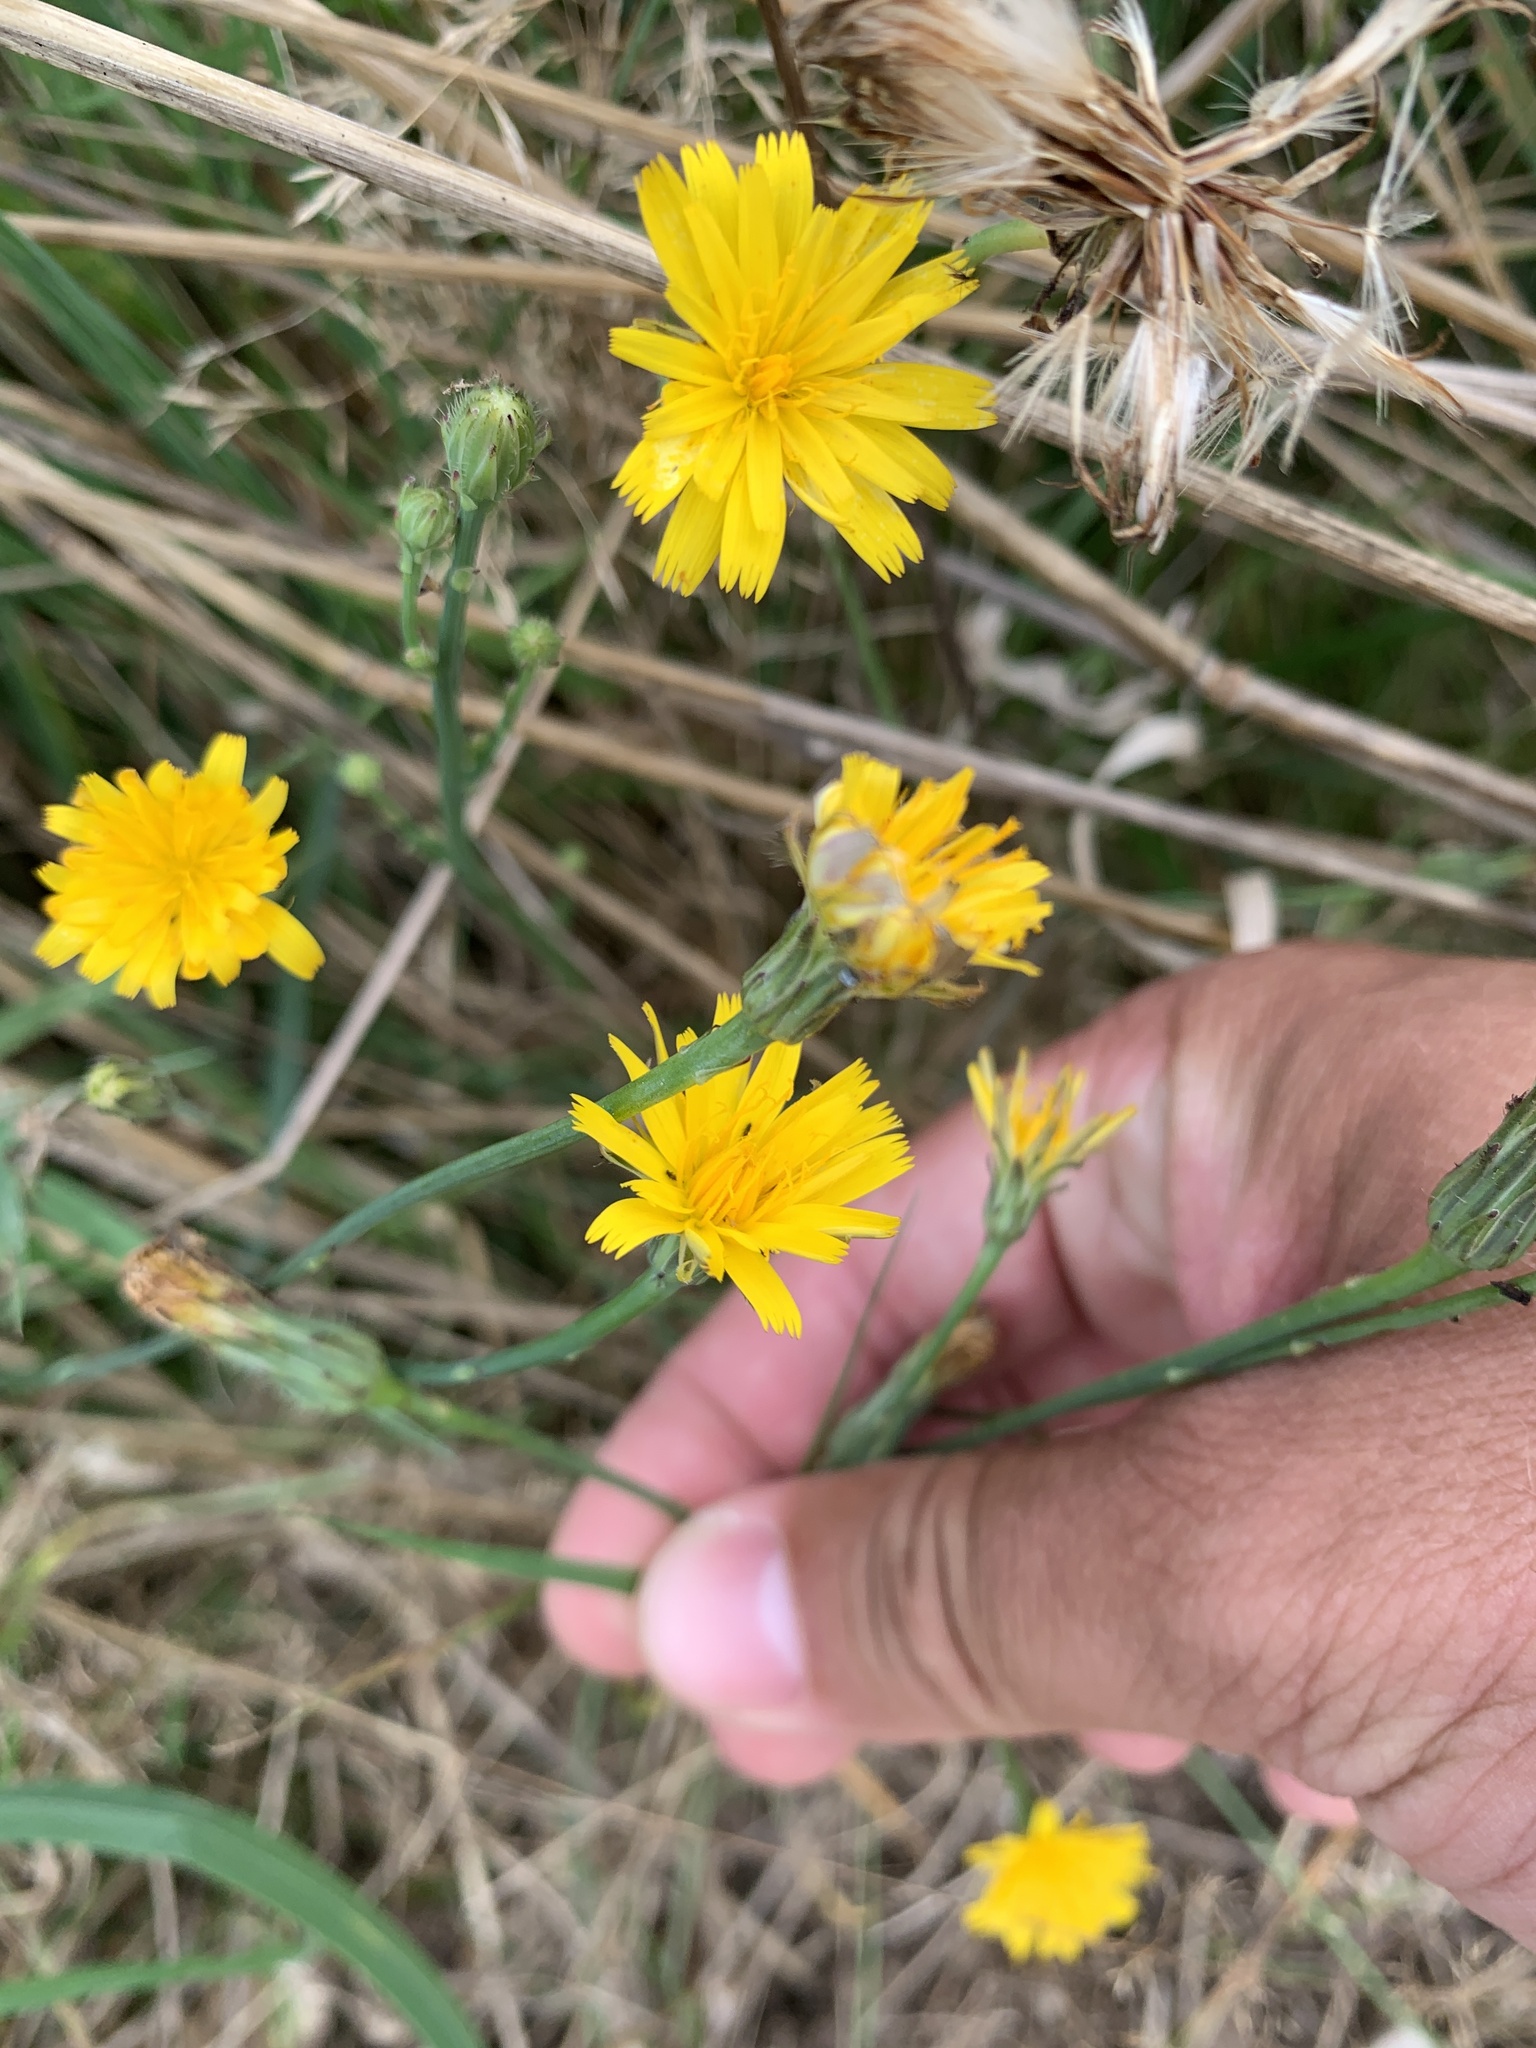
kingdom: Plantae
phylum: Tracheophyta
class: Magnoliopsida
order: Asterales
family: Asteraceae
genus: Hypochaeris
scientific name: Hypochaeris radicata
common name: Flatweed
